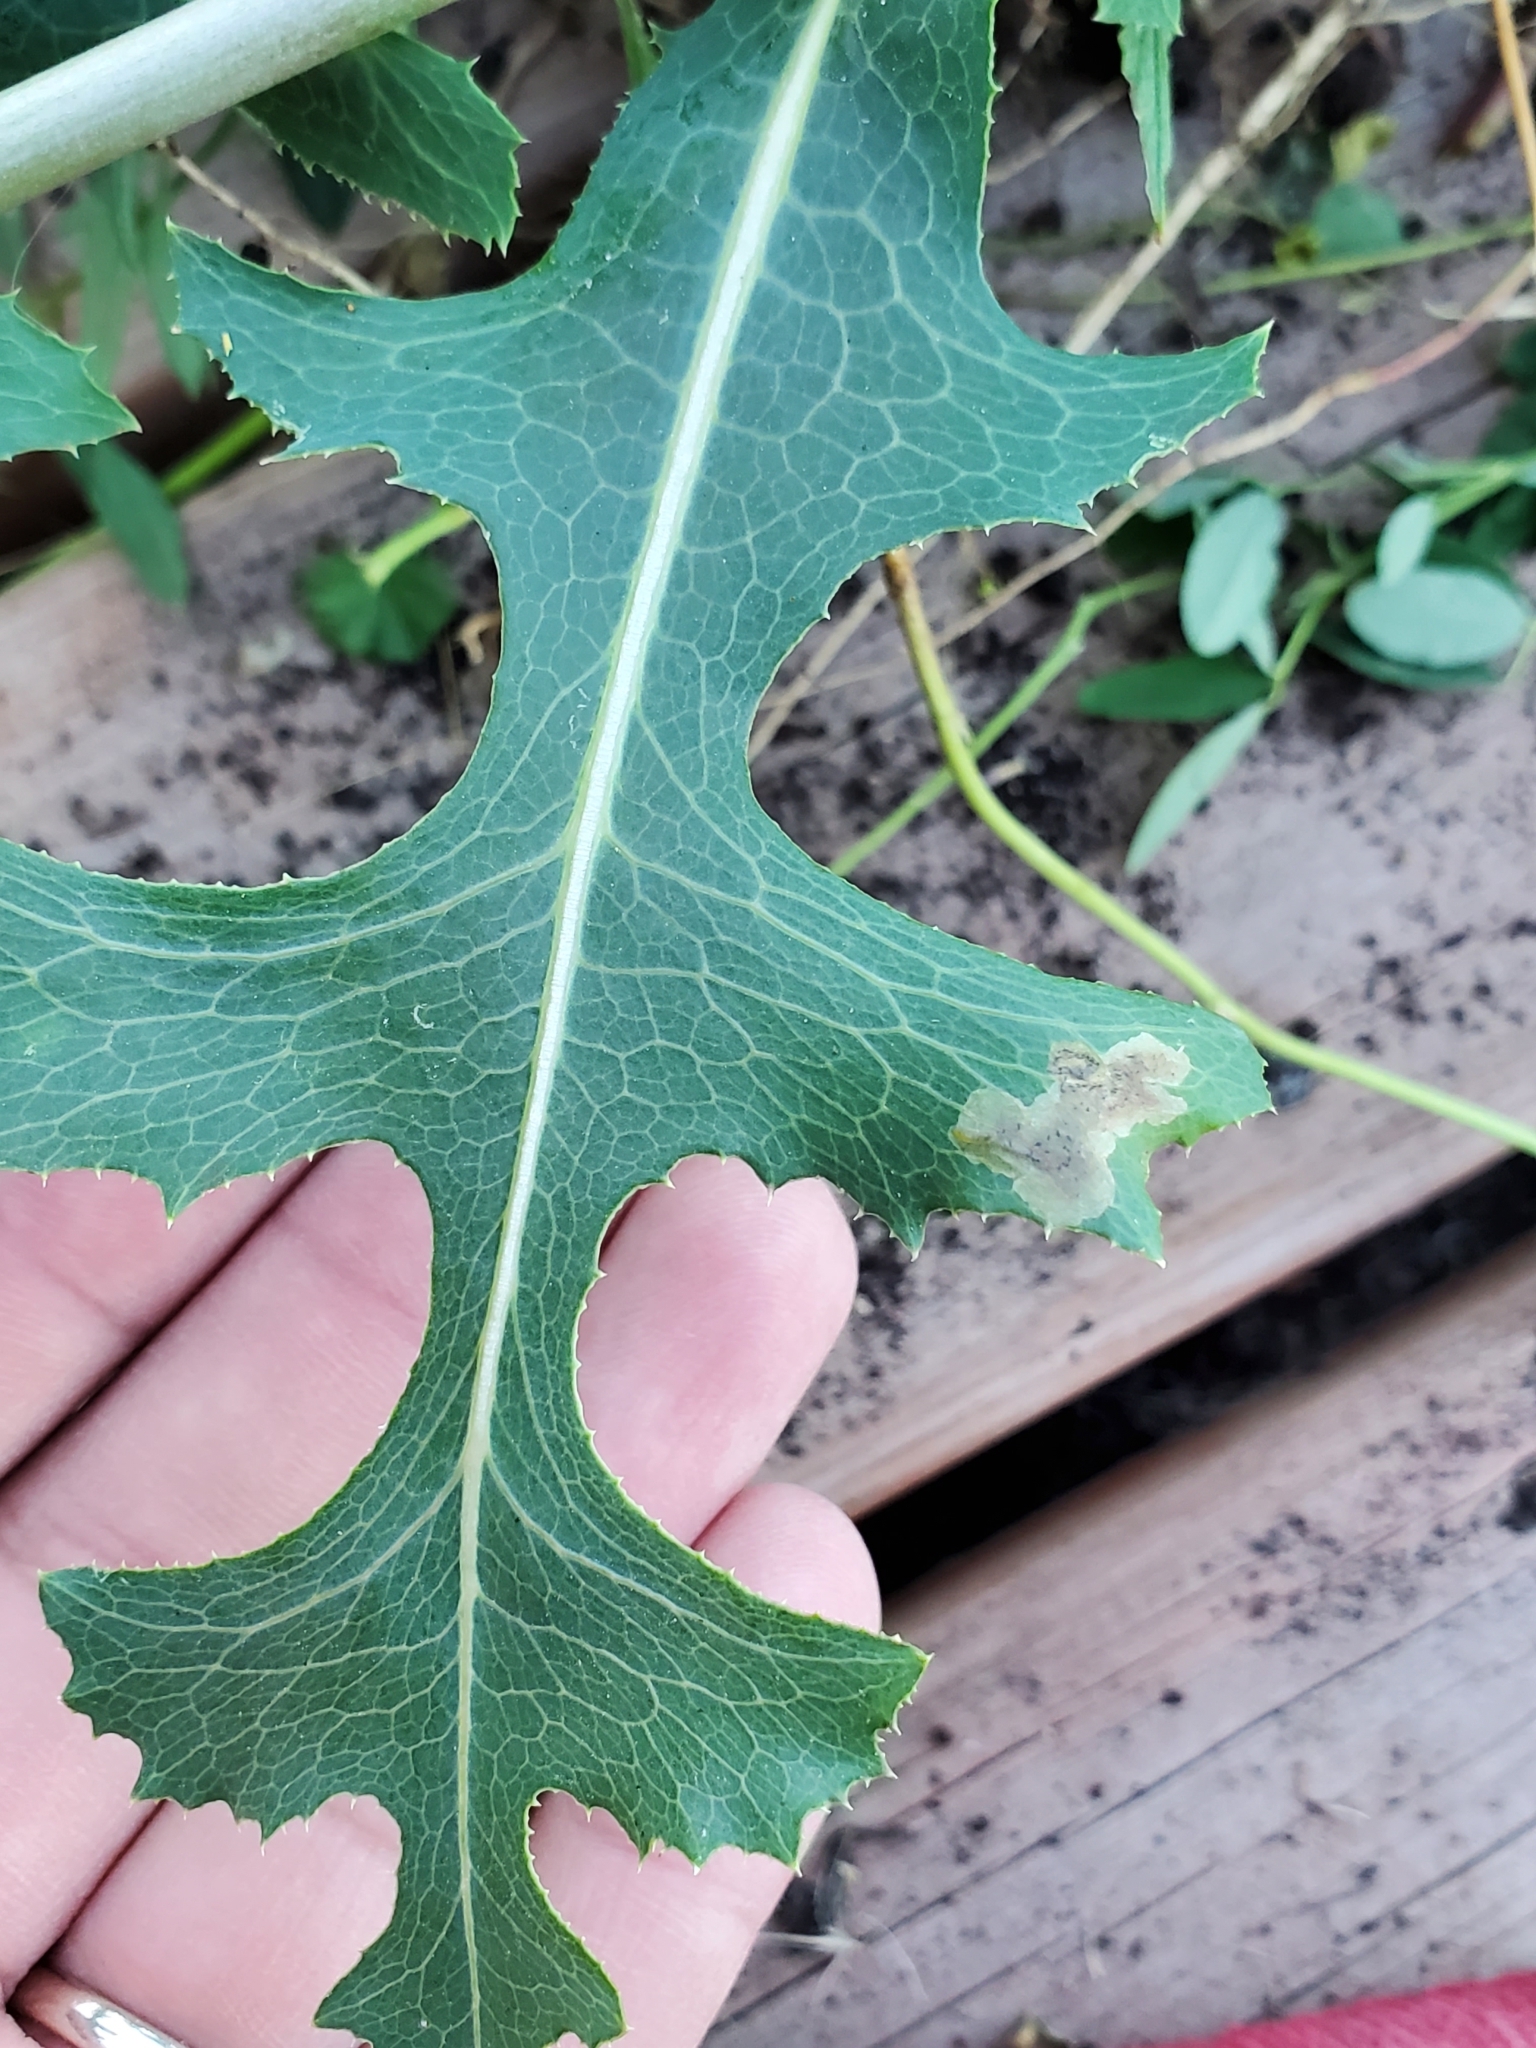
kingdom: Animalia
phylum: Arthropoda
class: Insecta
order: Diptera
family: Agromyzidae
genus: Liriomyza
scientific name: Liriomyza taraxaci
